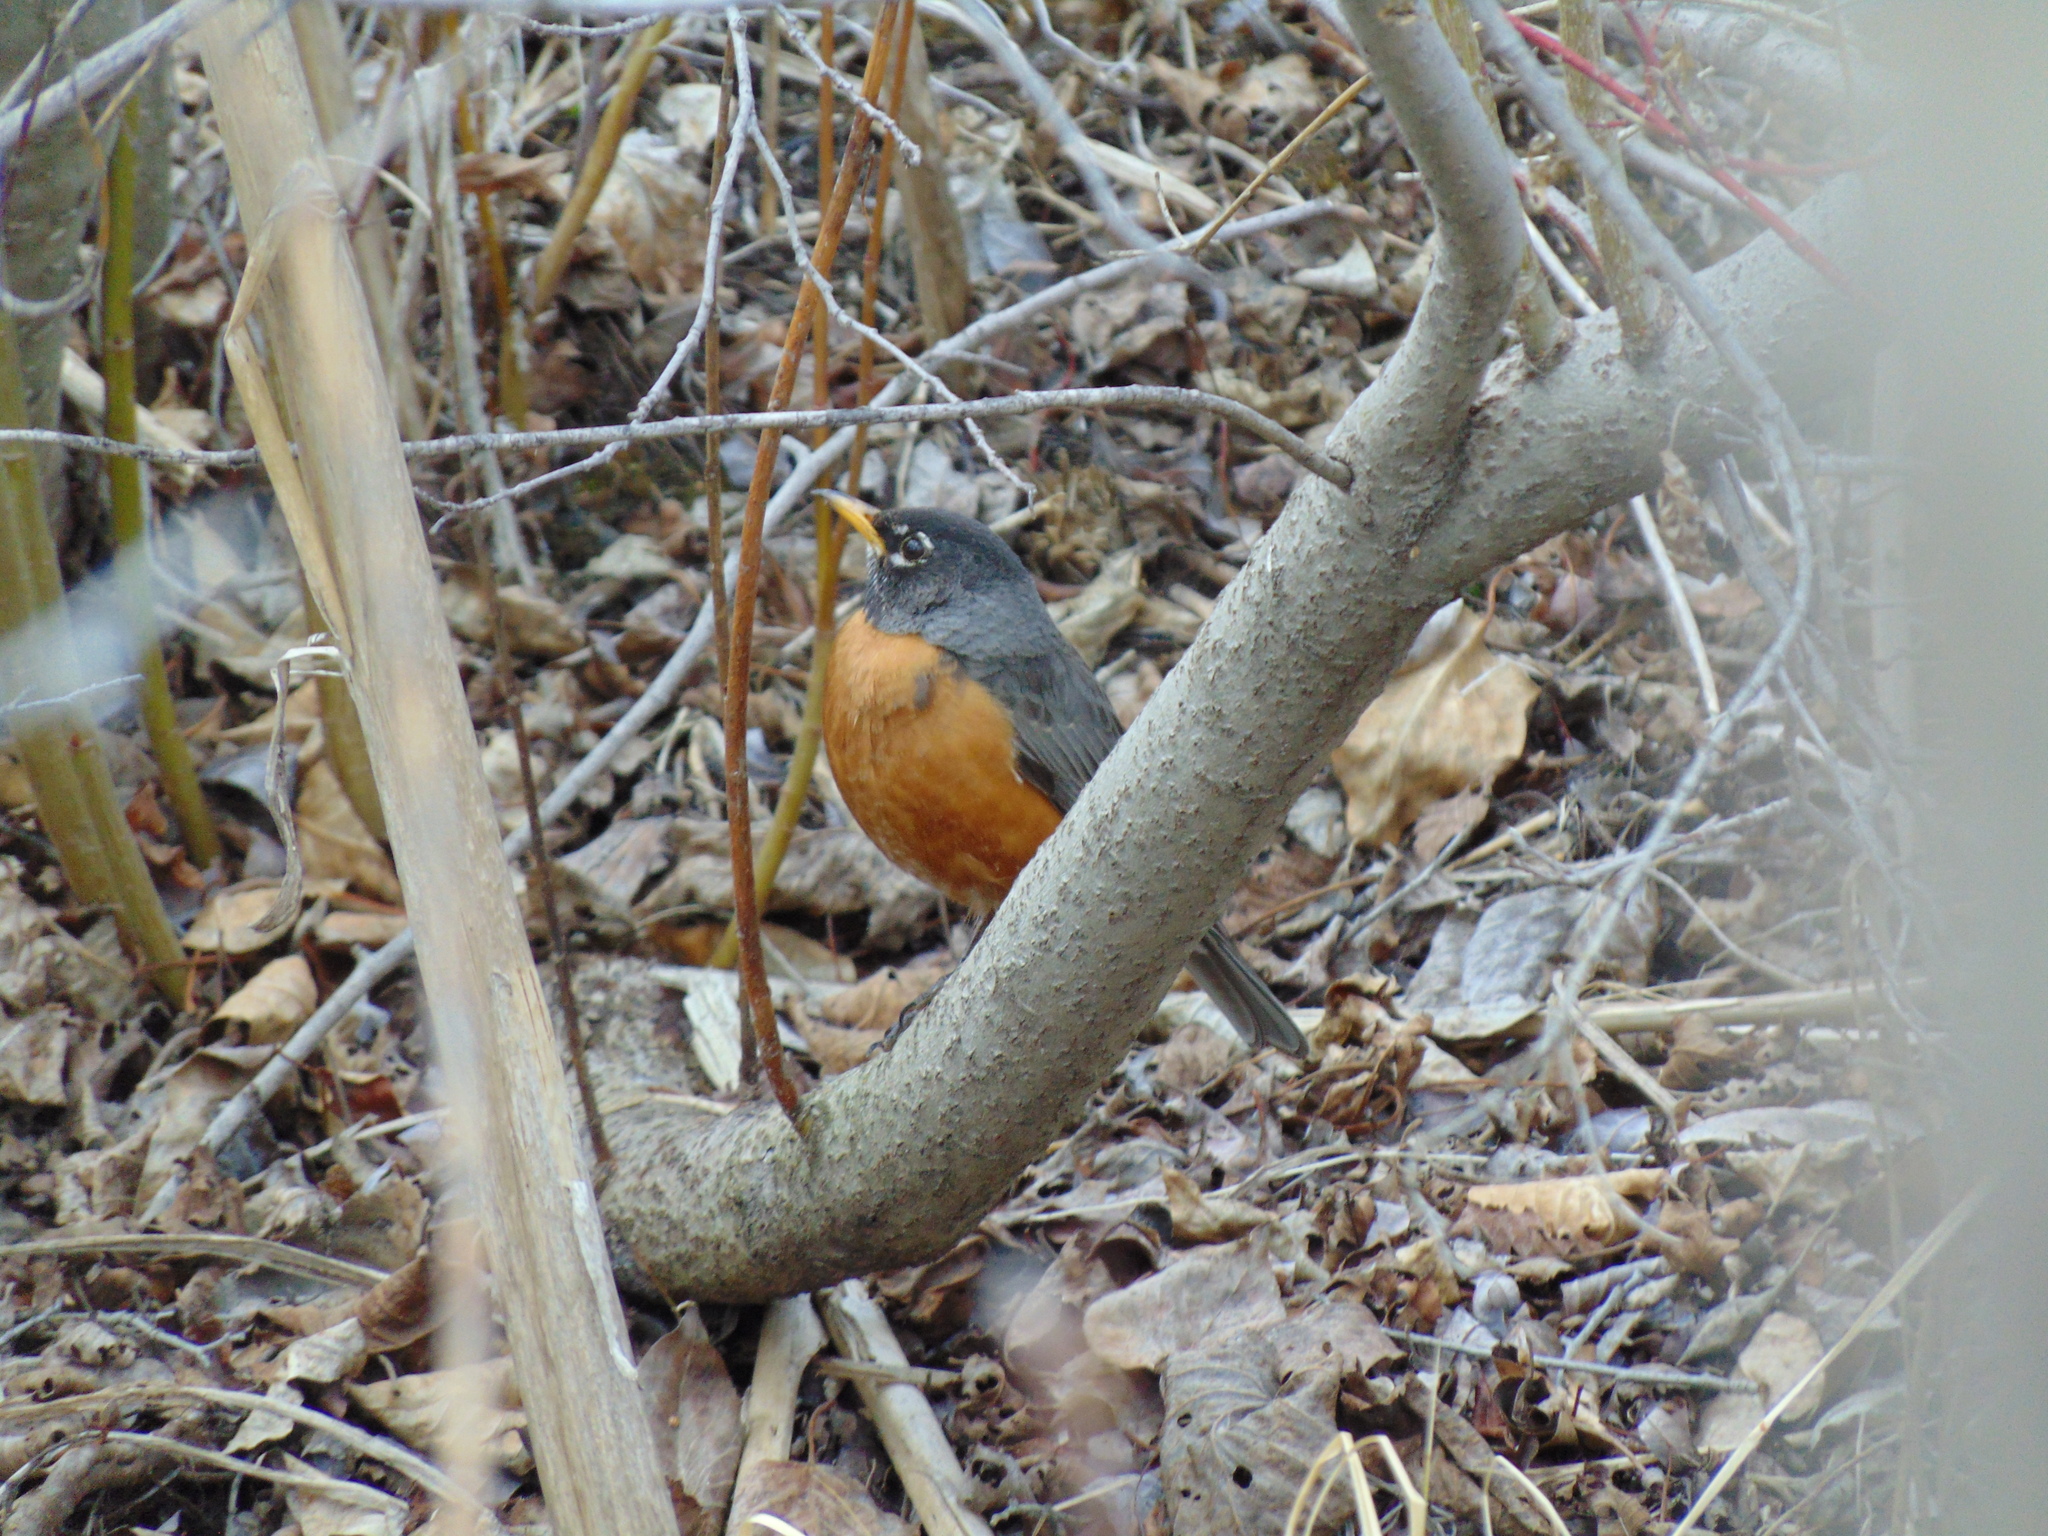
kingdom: Animalia
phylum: Chordata
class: Aves
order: Passeriformes
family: Turdidae
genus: Turdus
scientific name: Turdus migratorius
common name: American robin
